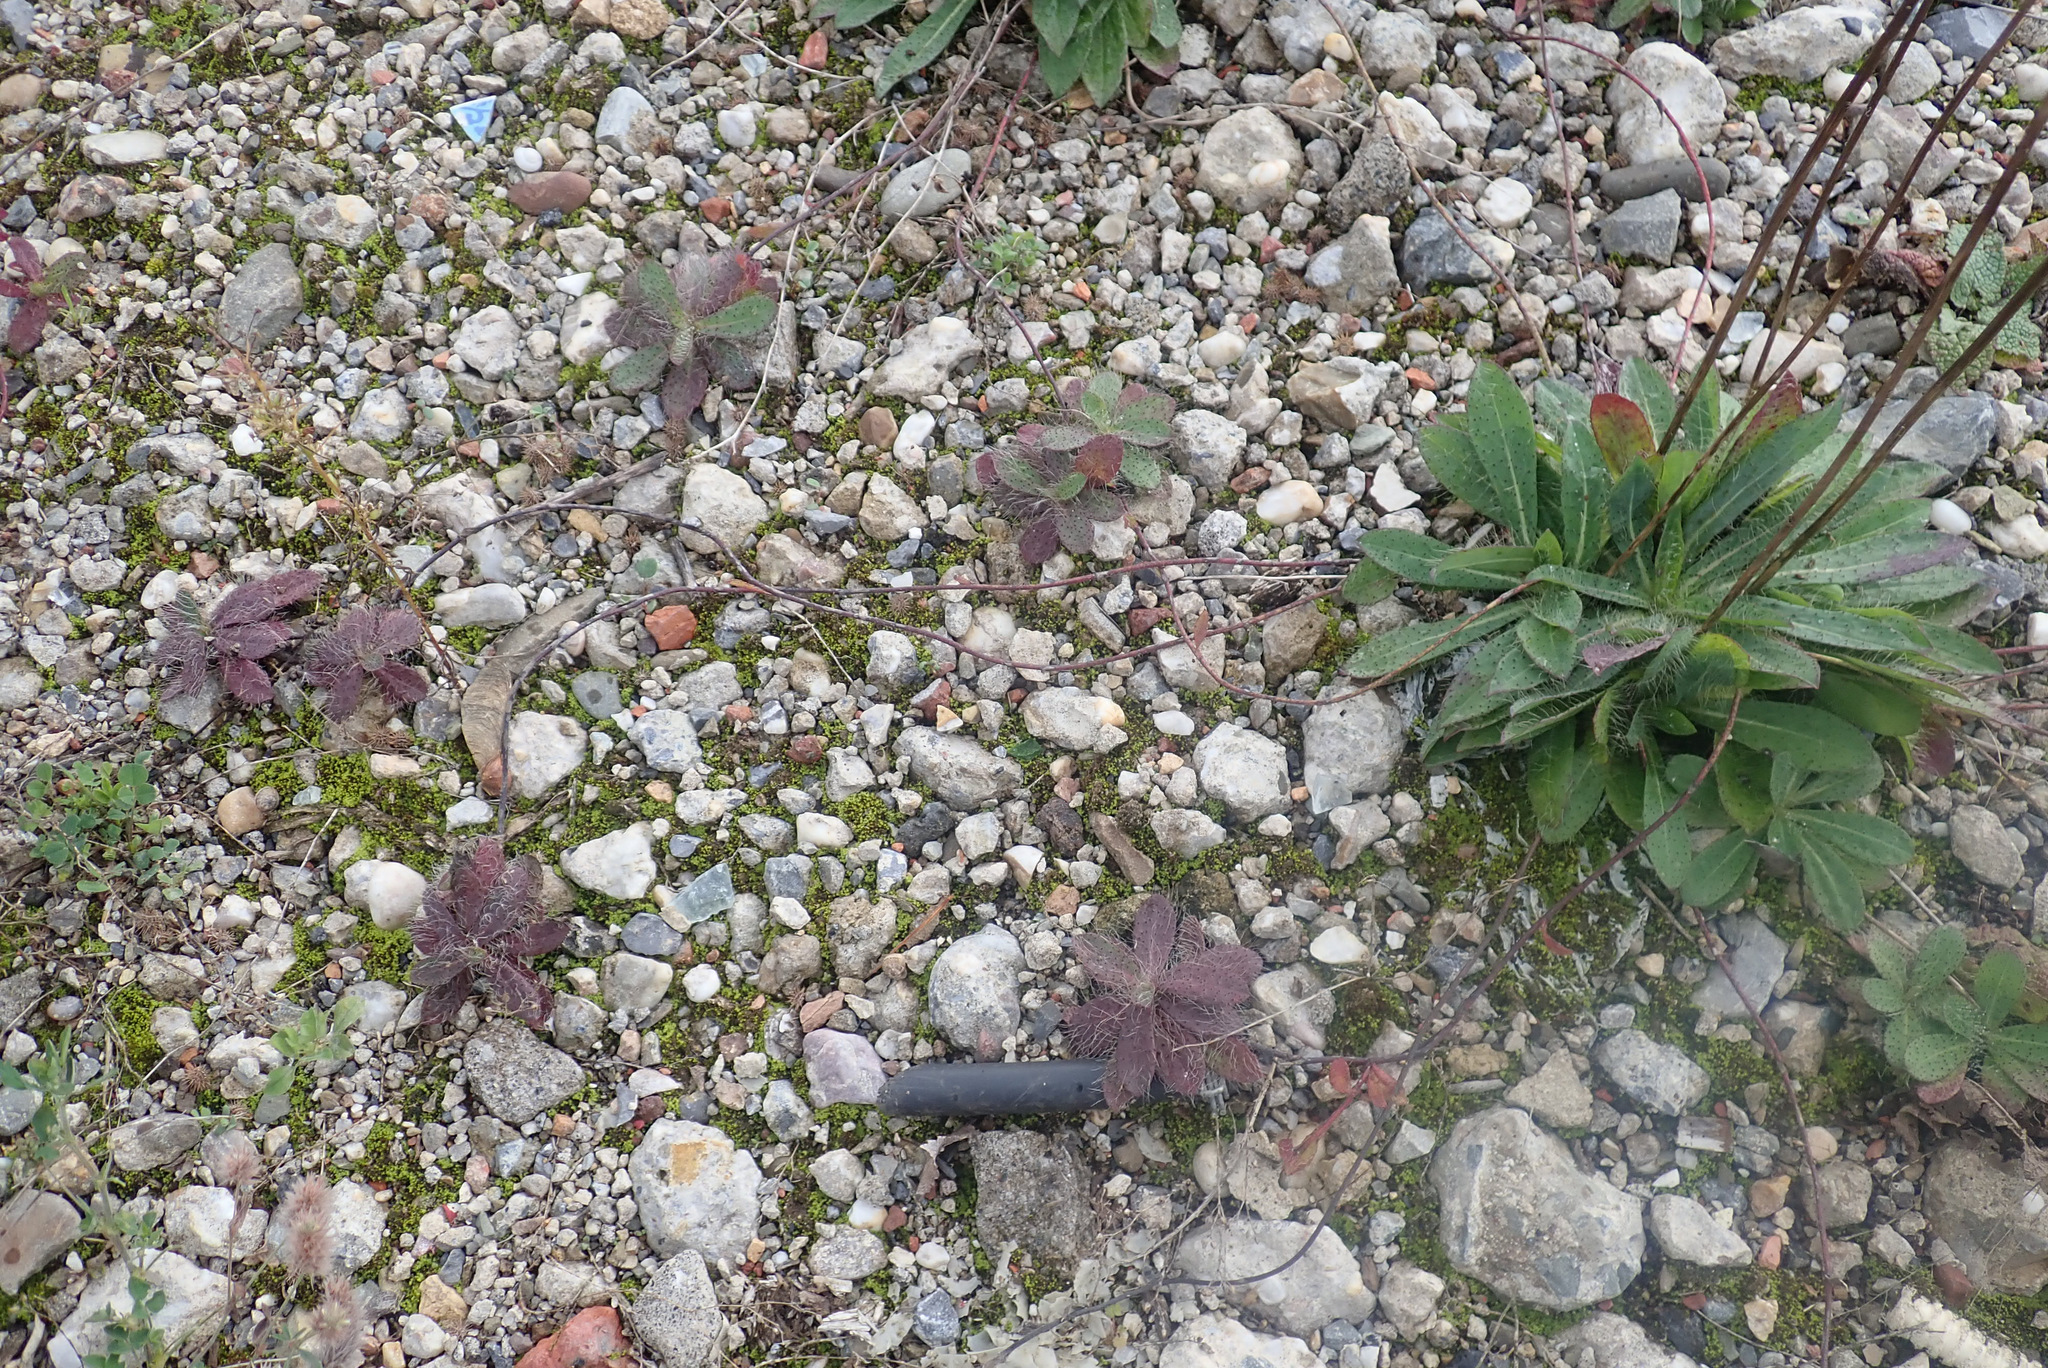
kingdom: Plantae
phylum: Tracheophyta
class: Magnoliopsida
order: Asterales
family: Asteraceae
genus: Pilosella
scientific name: Pilosella bauhini
